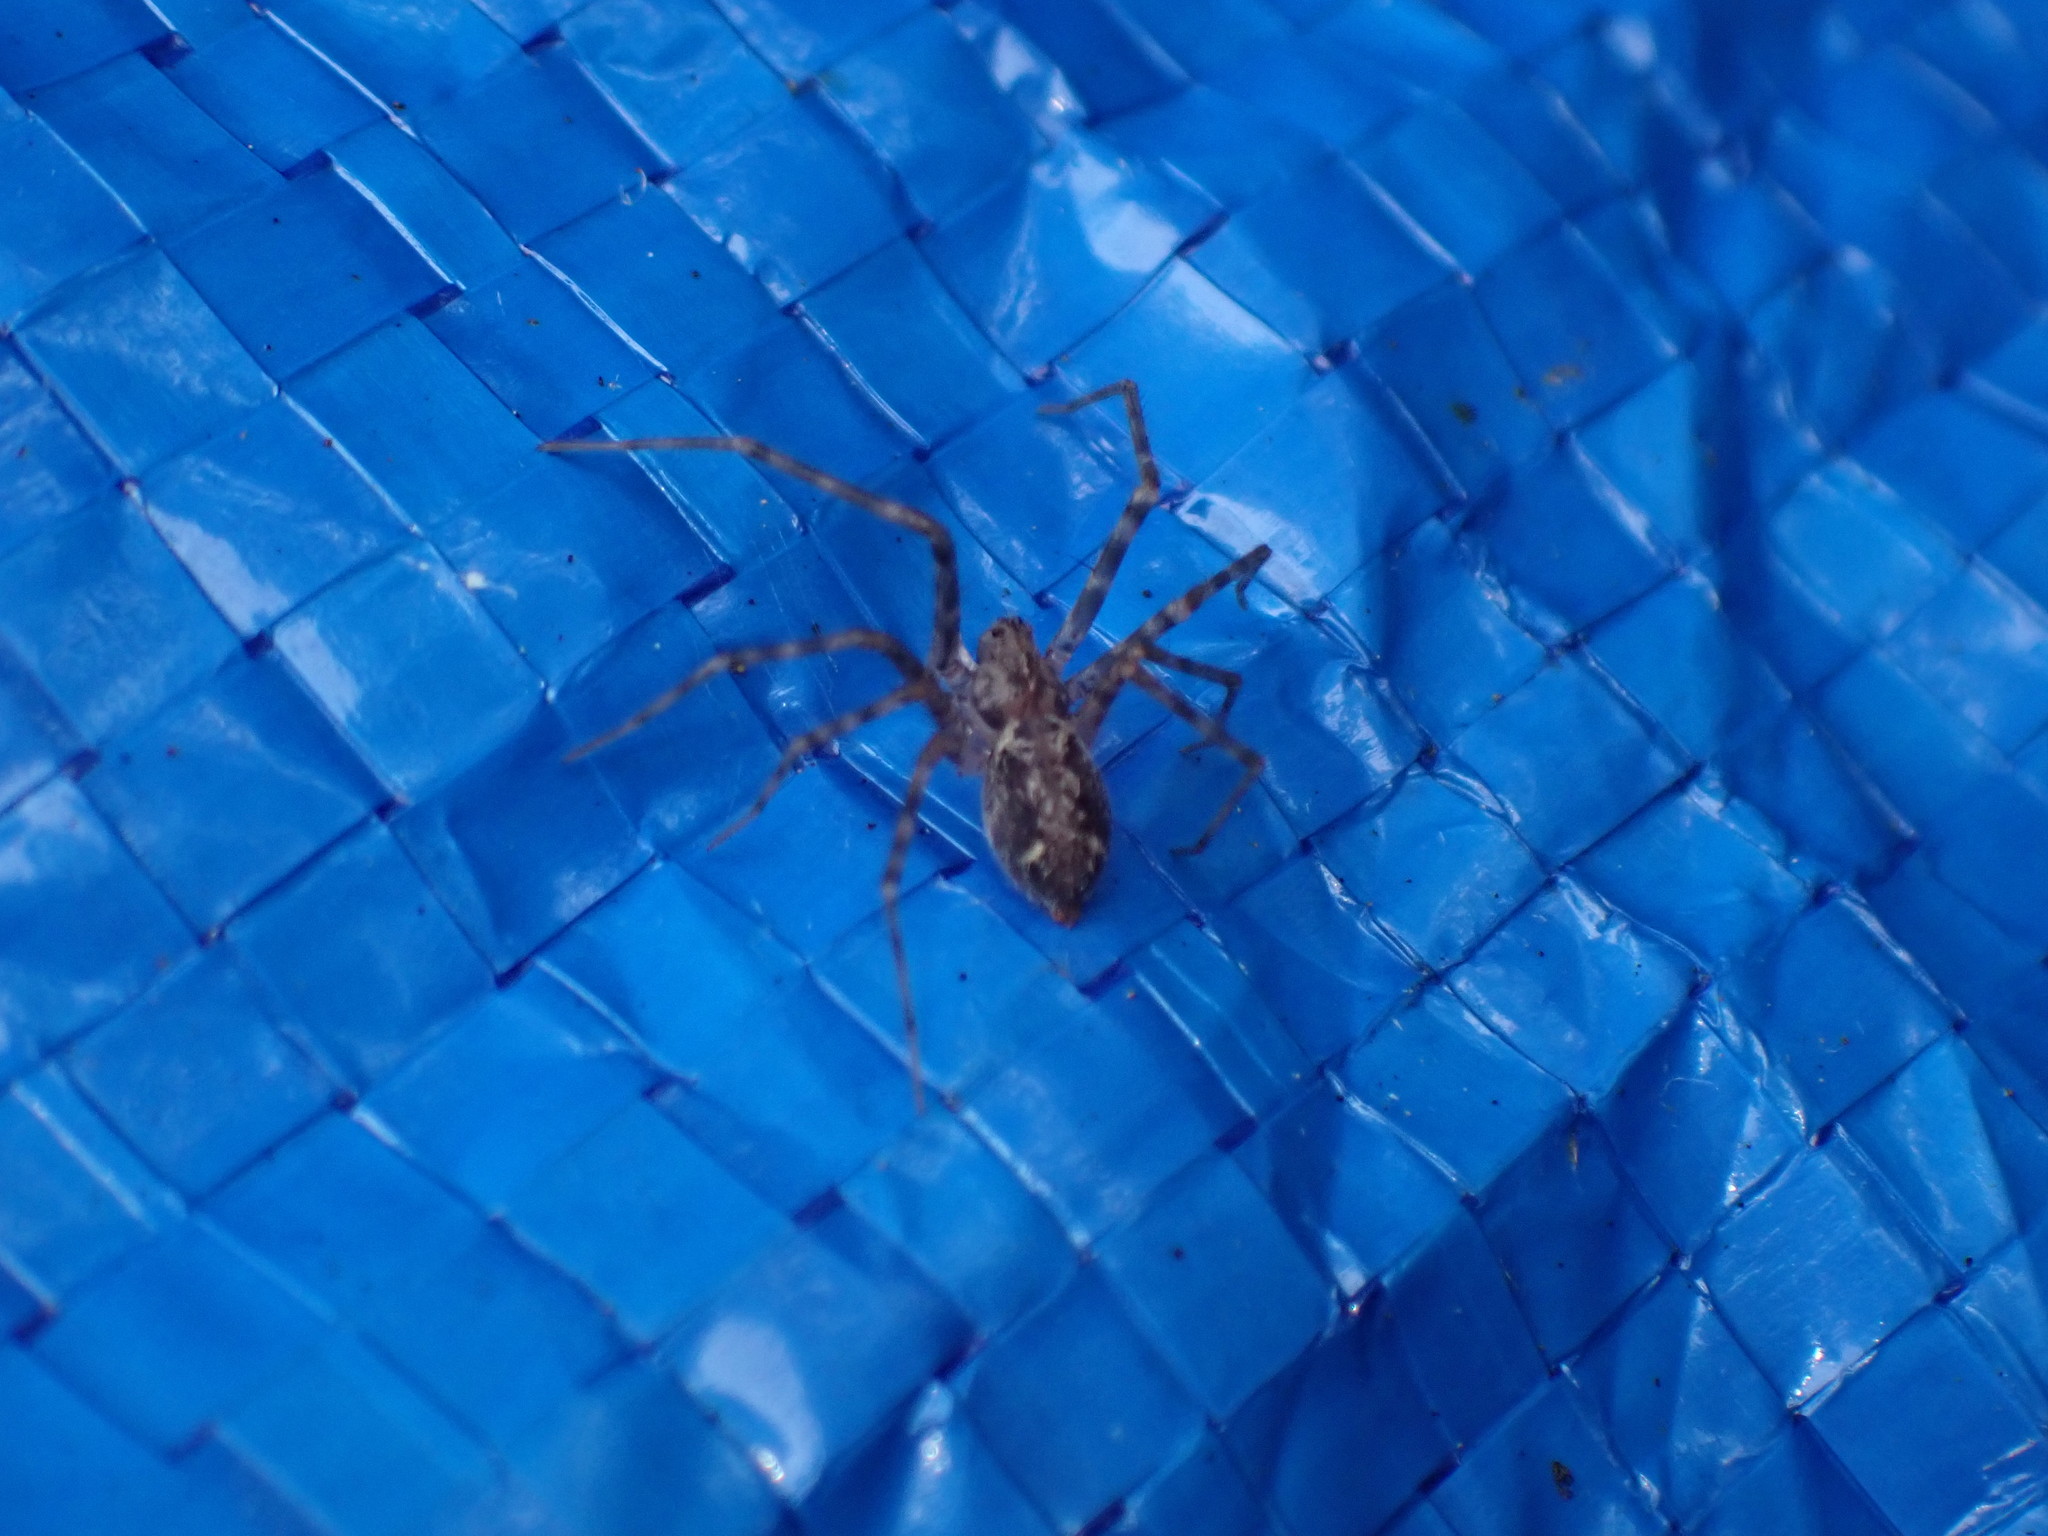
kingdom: Animalia
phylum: Arthropoda
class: Arachnida
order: Araneae
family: Stiphidiidae
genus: Stiphidion
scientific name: Stiphidion facetum
